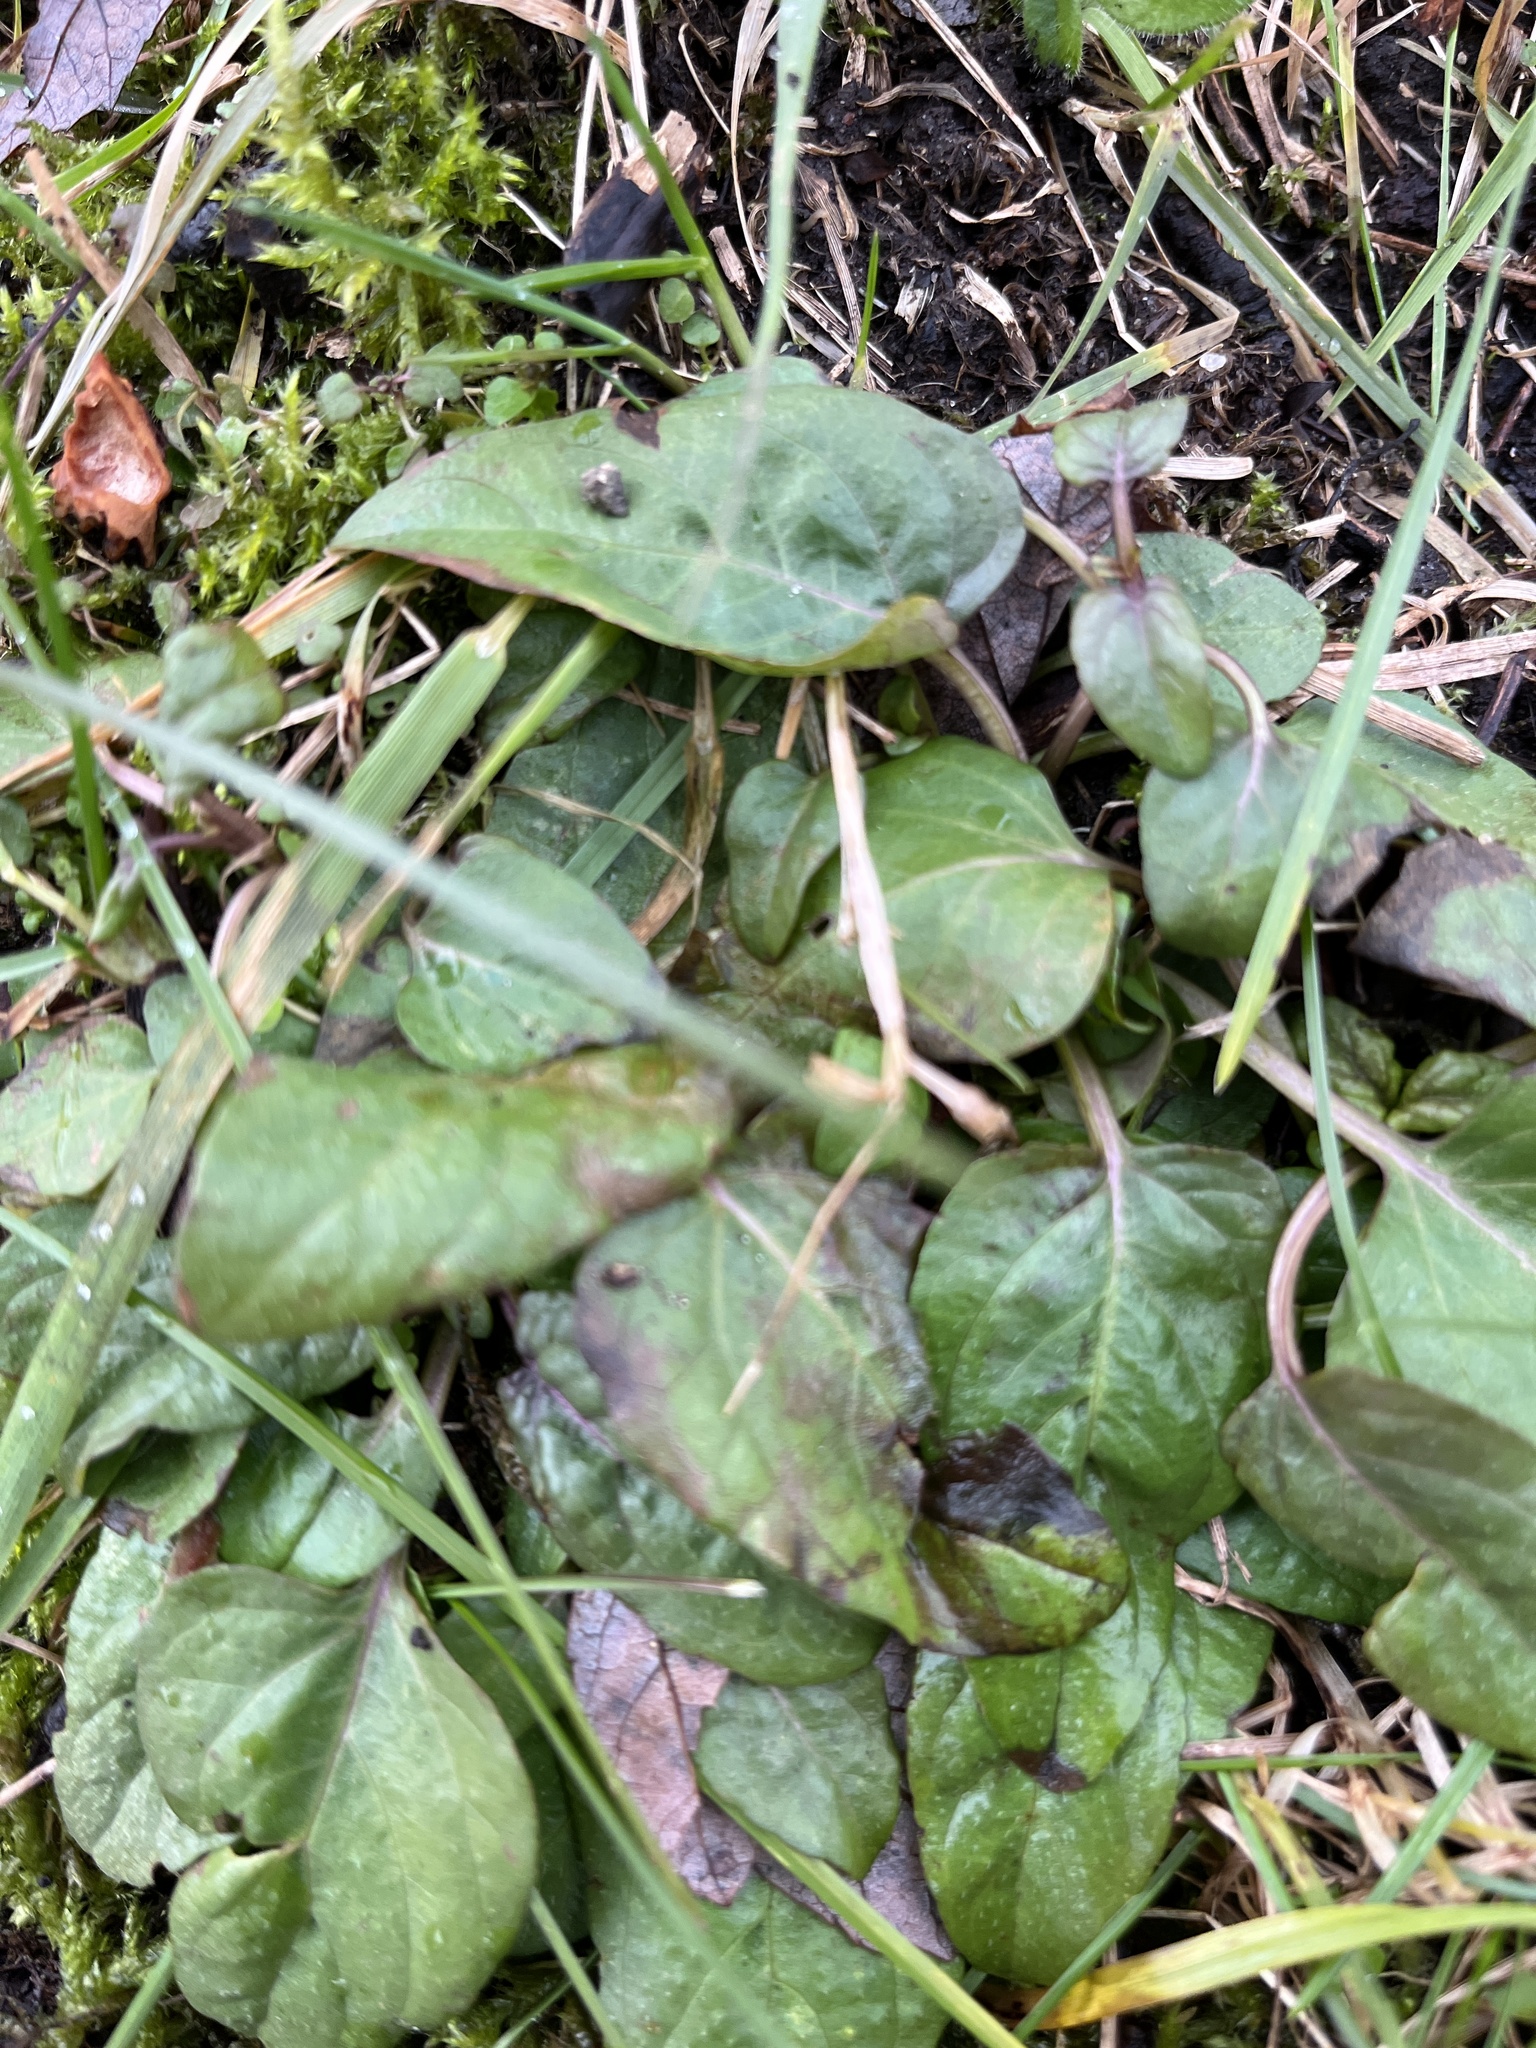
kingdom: Plantae
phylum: Tracheophyta
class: Magnoliopsida
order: Lamiales
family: Lamiaceae
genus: Prunella
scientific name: Prunella vulgaris
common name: Heal-all
